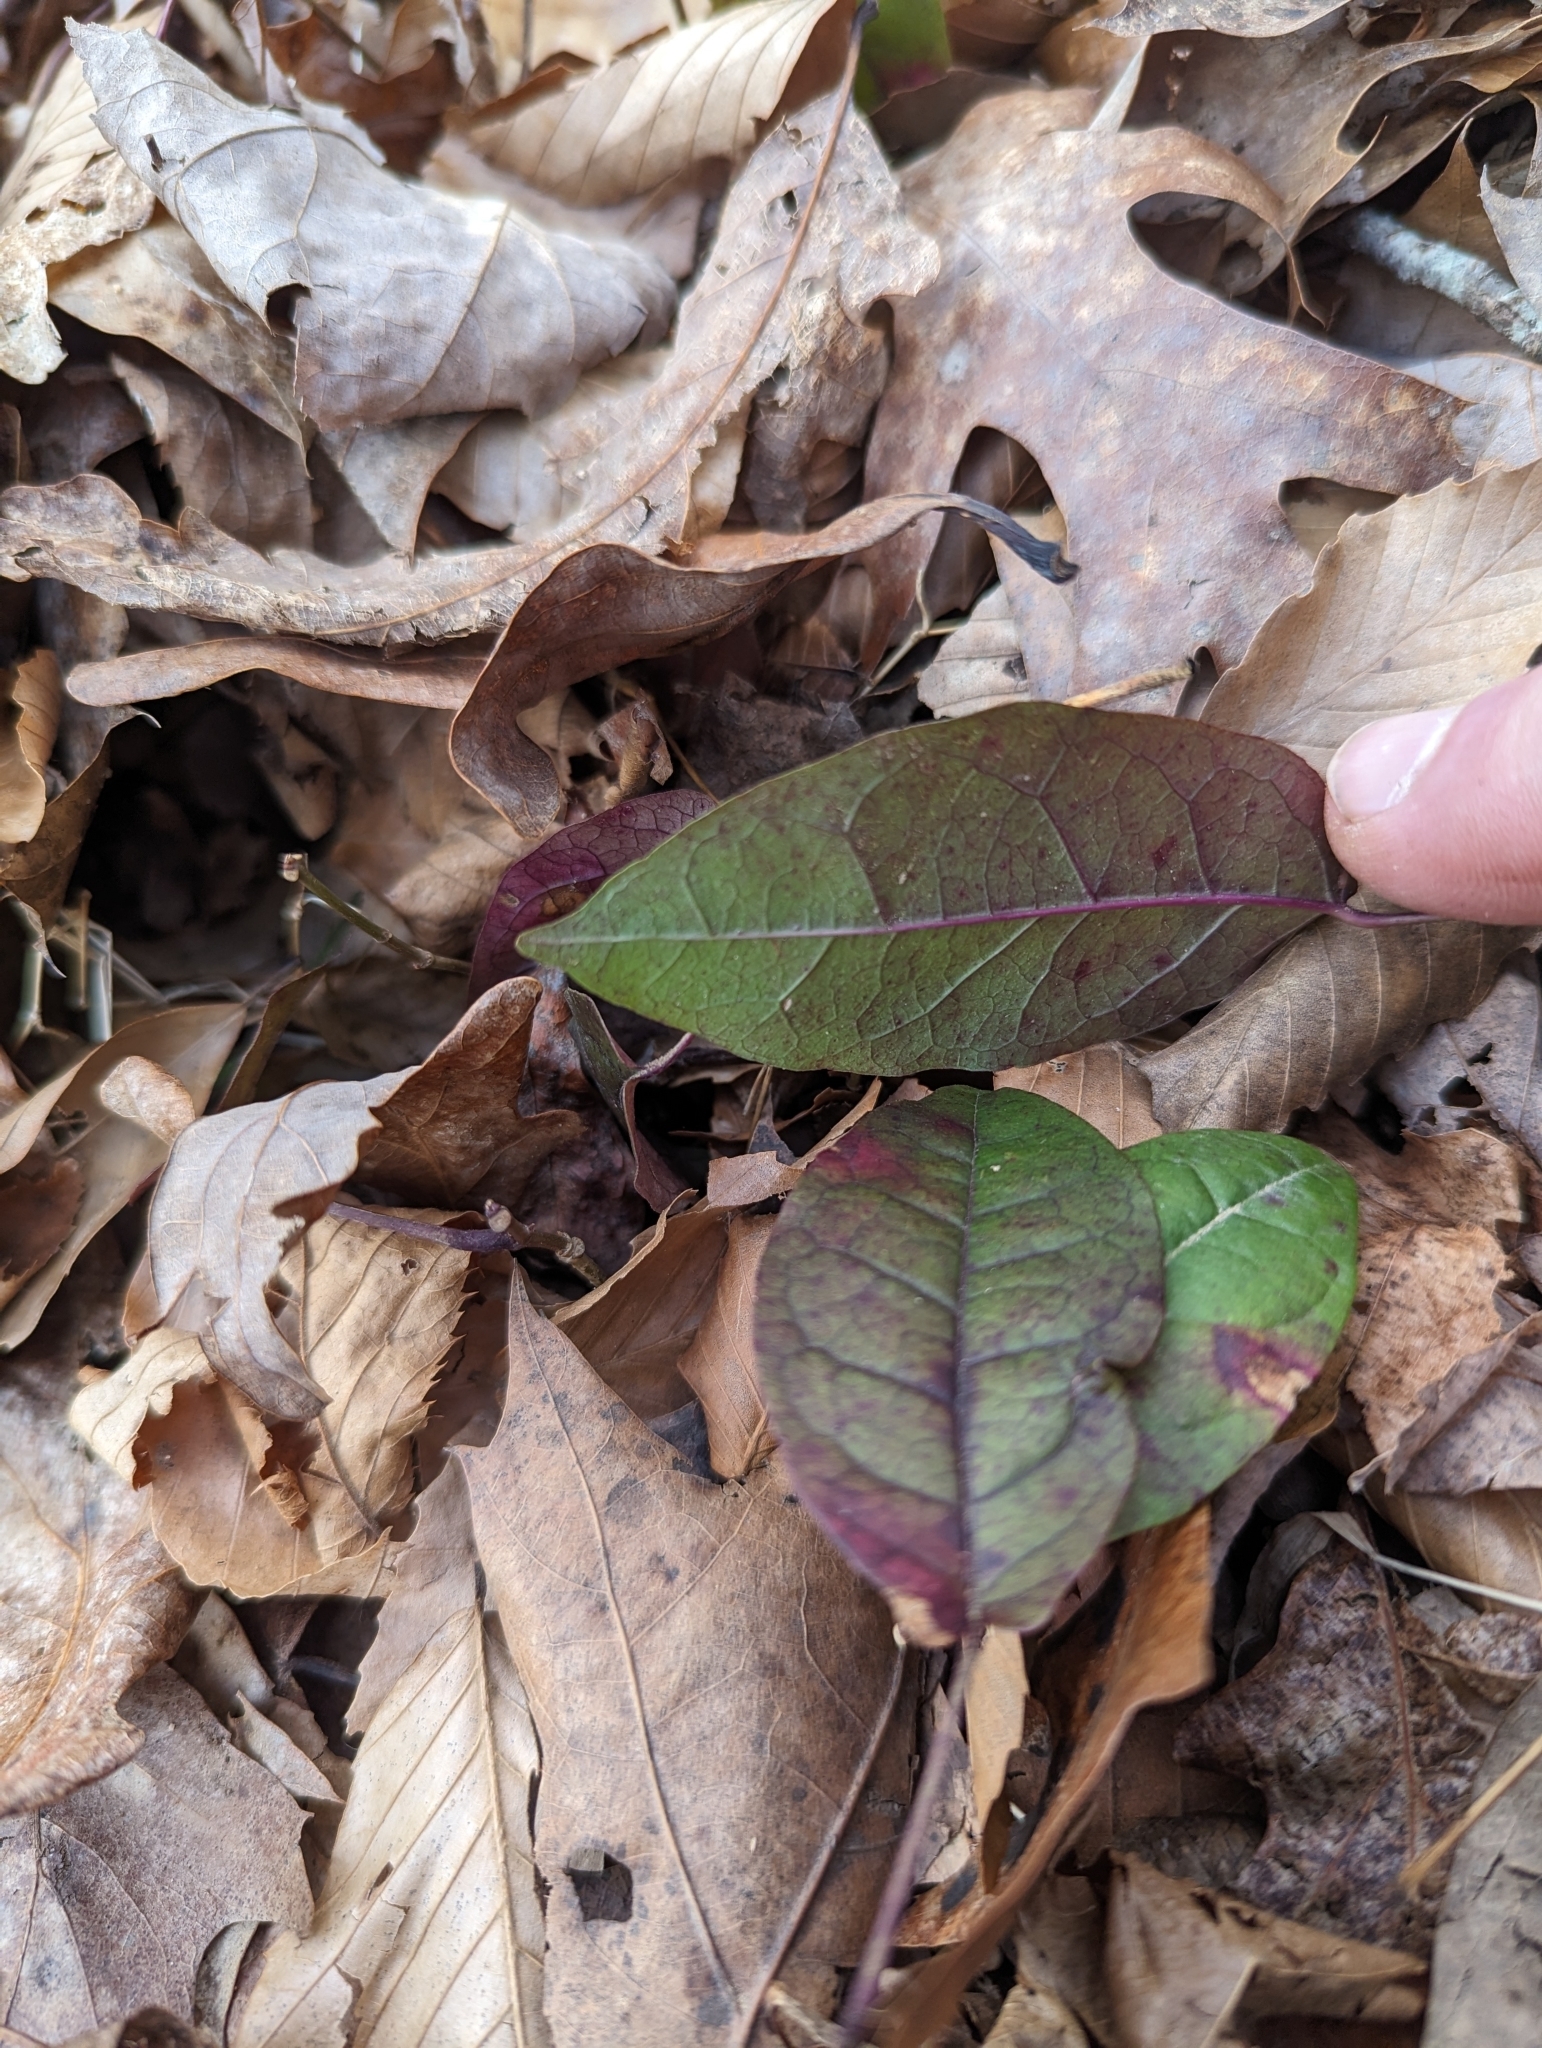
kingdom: Plantae
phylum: Tracheophyta
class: Magnoliopsida
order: Lamiales
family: Bignoniaceae
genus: Bignonia
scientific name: Bignonia capreolata
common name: Crossvine
